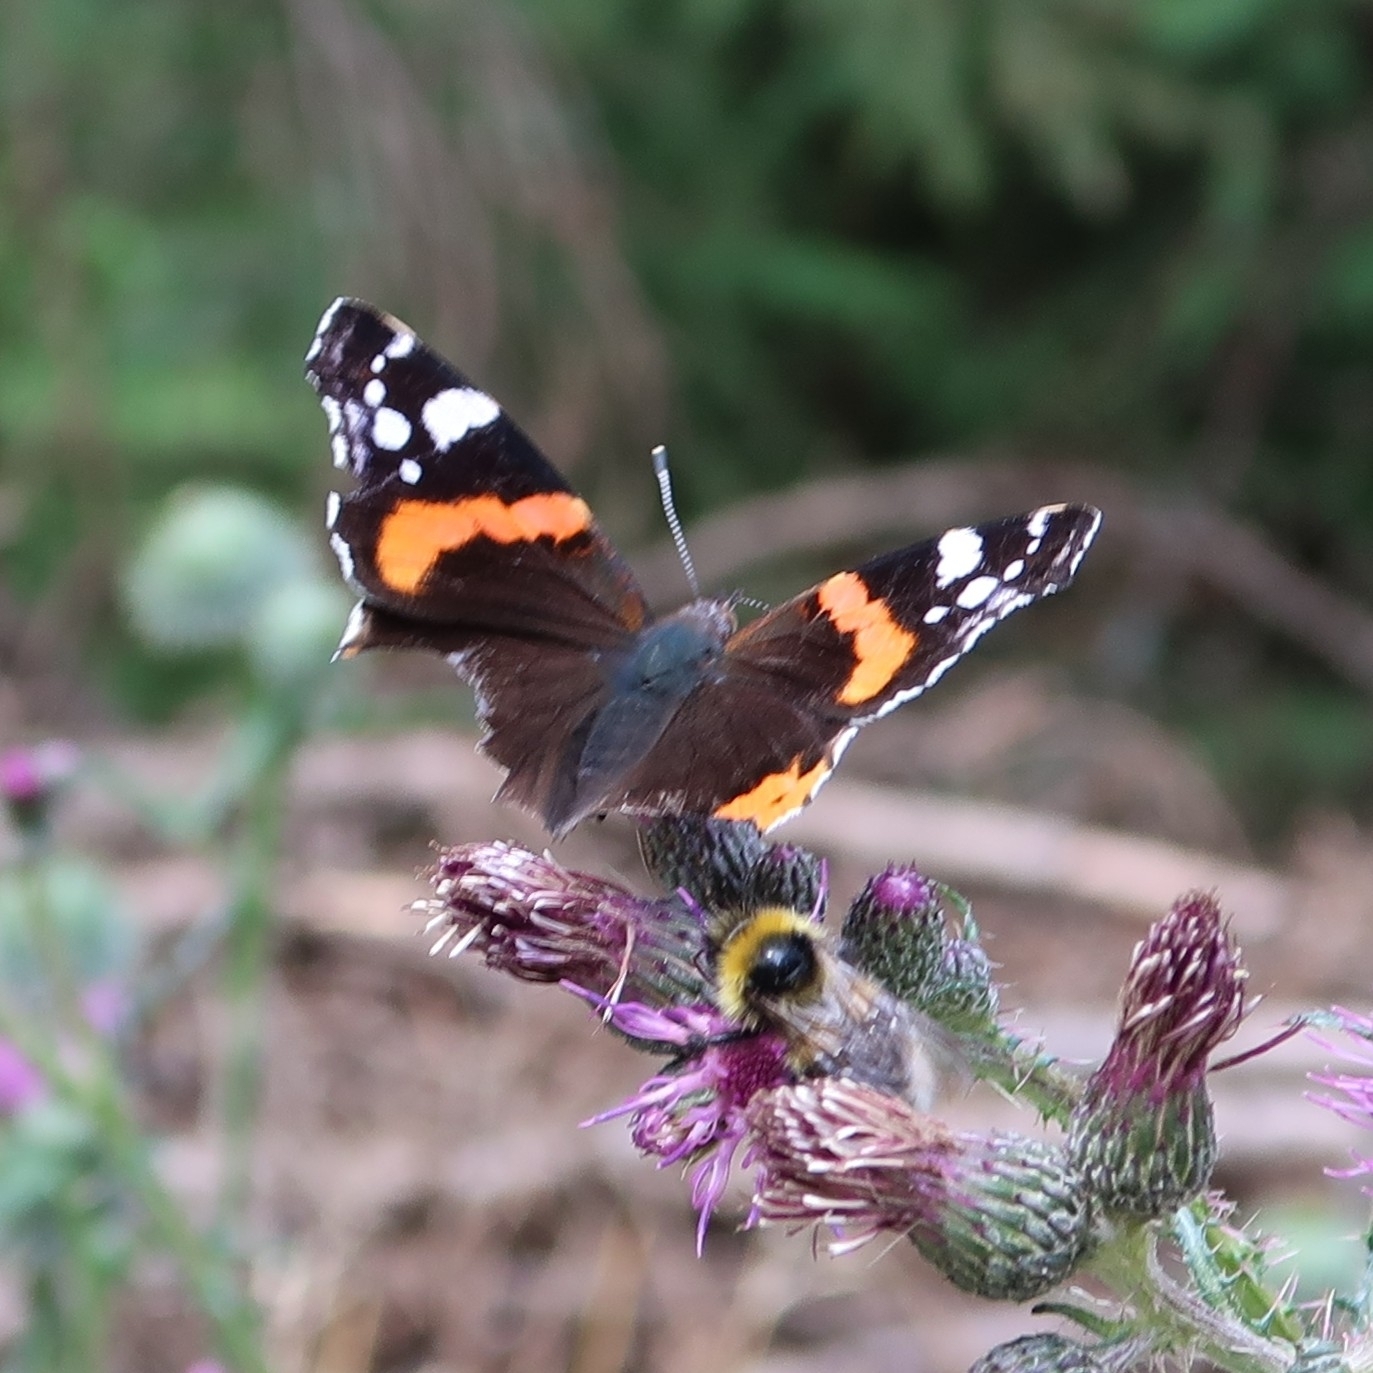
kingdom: Animalia
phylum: Arthropoda
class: Insecta
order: Lepidoptera
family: Nymphalidae
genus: Vanessa
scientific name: Vanessa atalanta
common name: Red admiral
